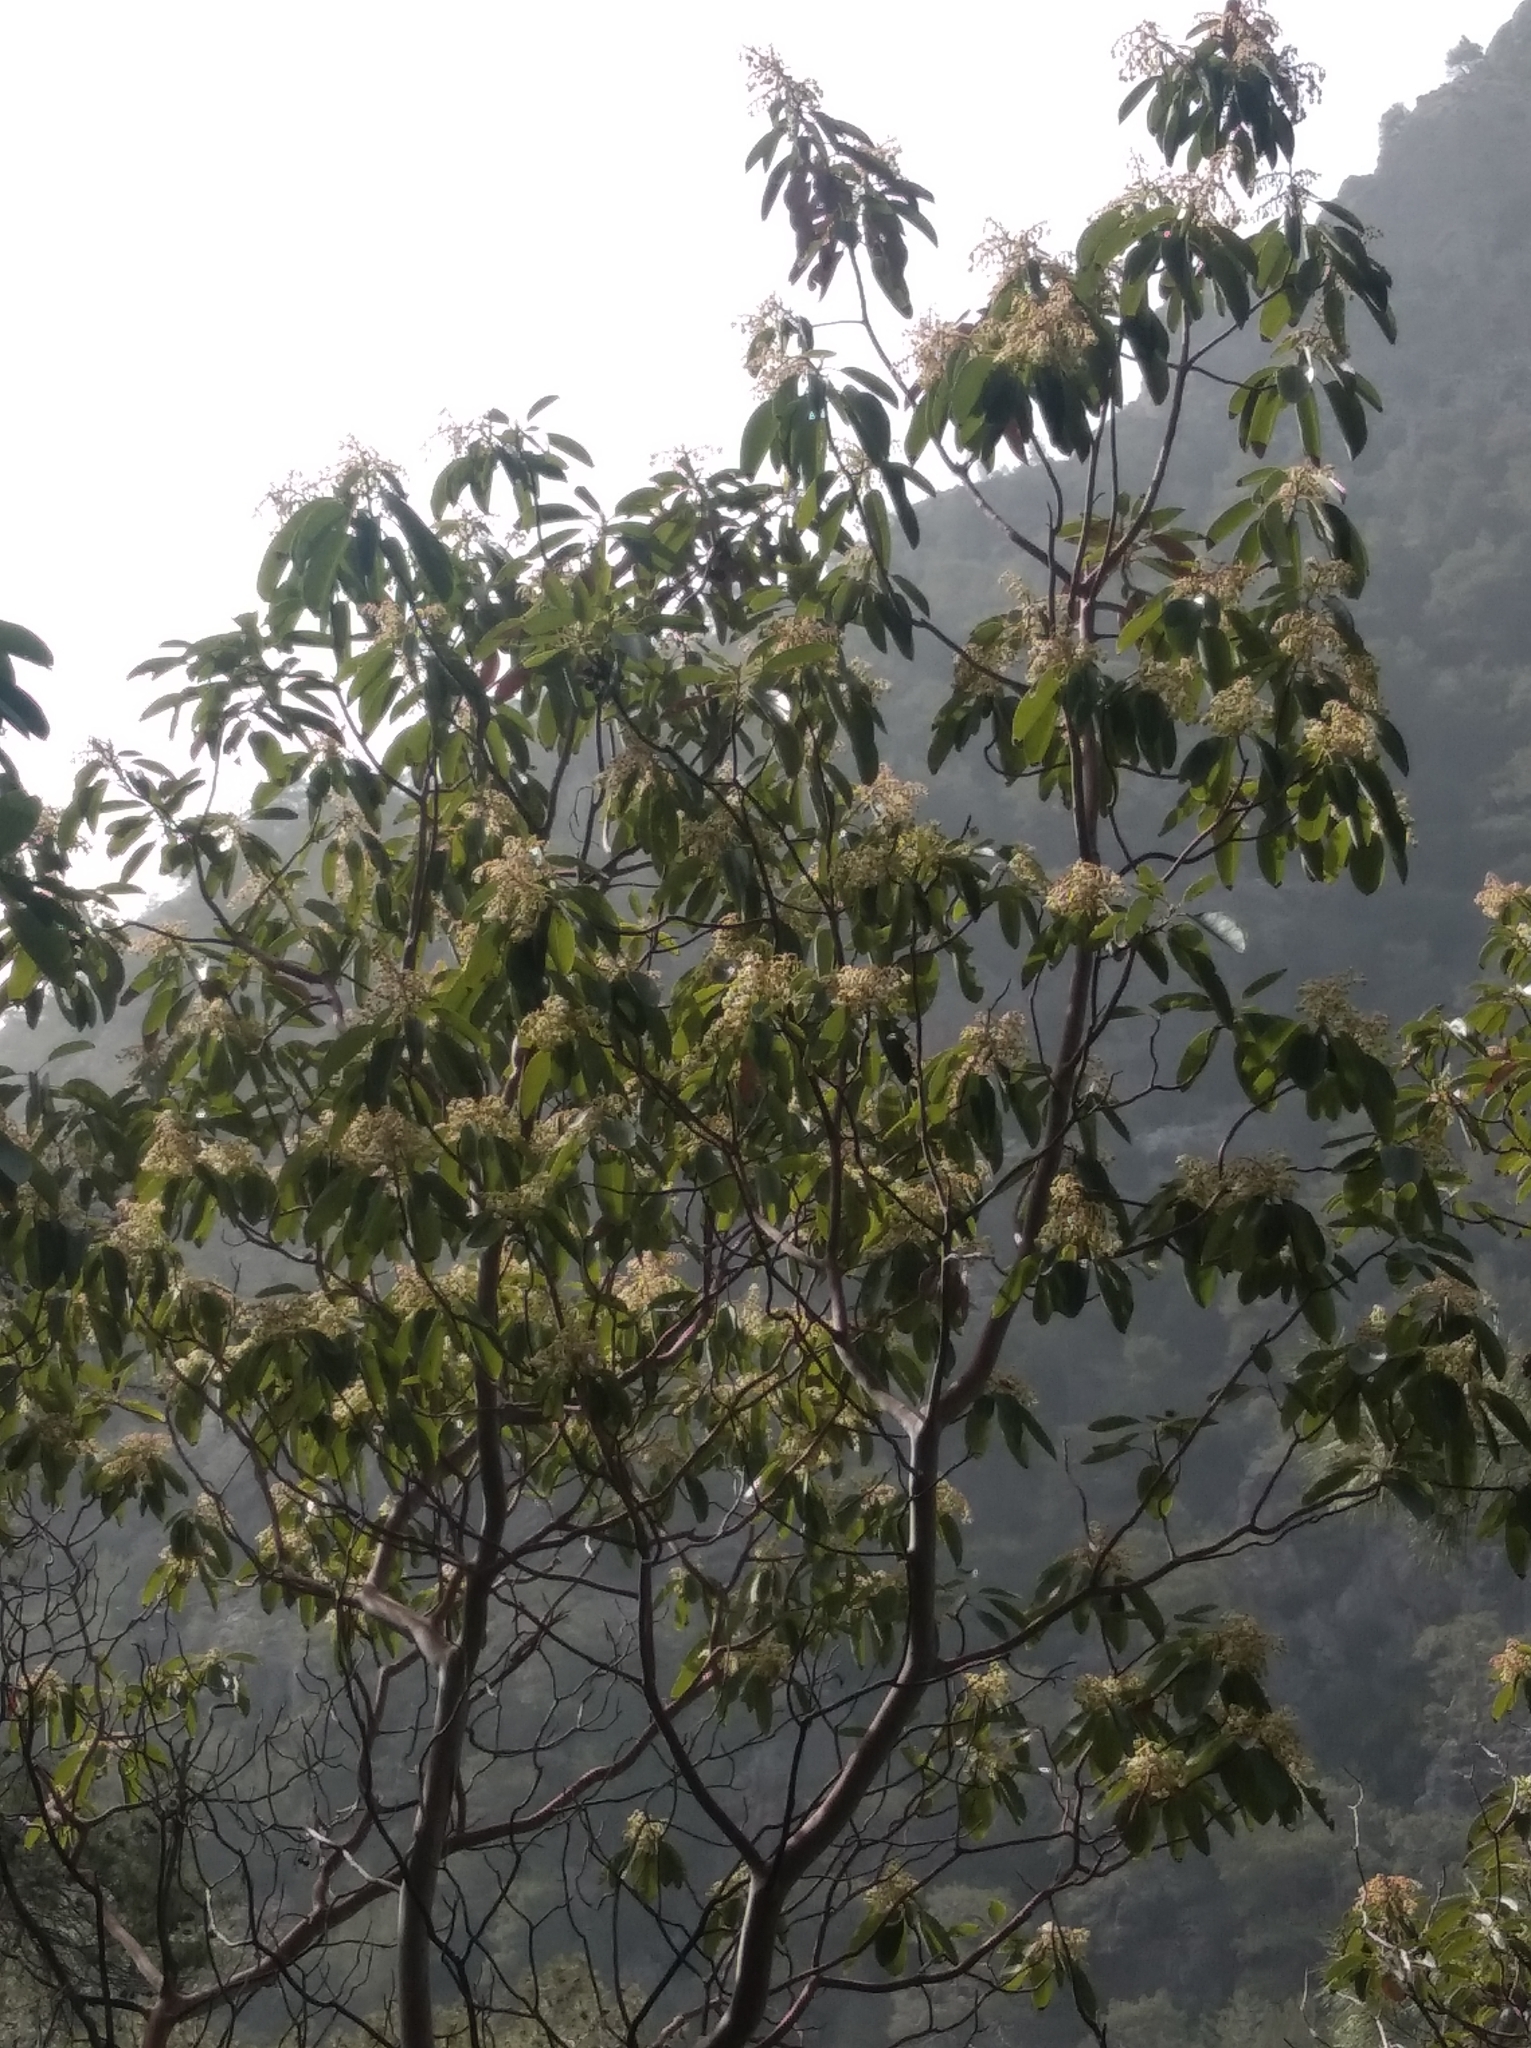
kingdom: Plantae
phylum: Tracheophyta
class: Magnoliopsida
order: Ericales
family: Ericaceae
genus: Arbutus
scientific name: Arbutus andrachne
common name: Greek strawberry tree
